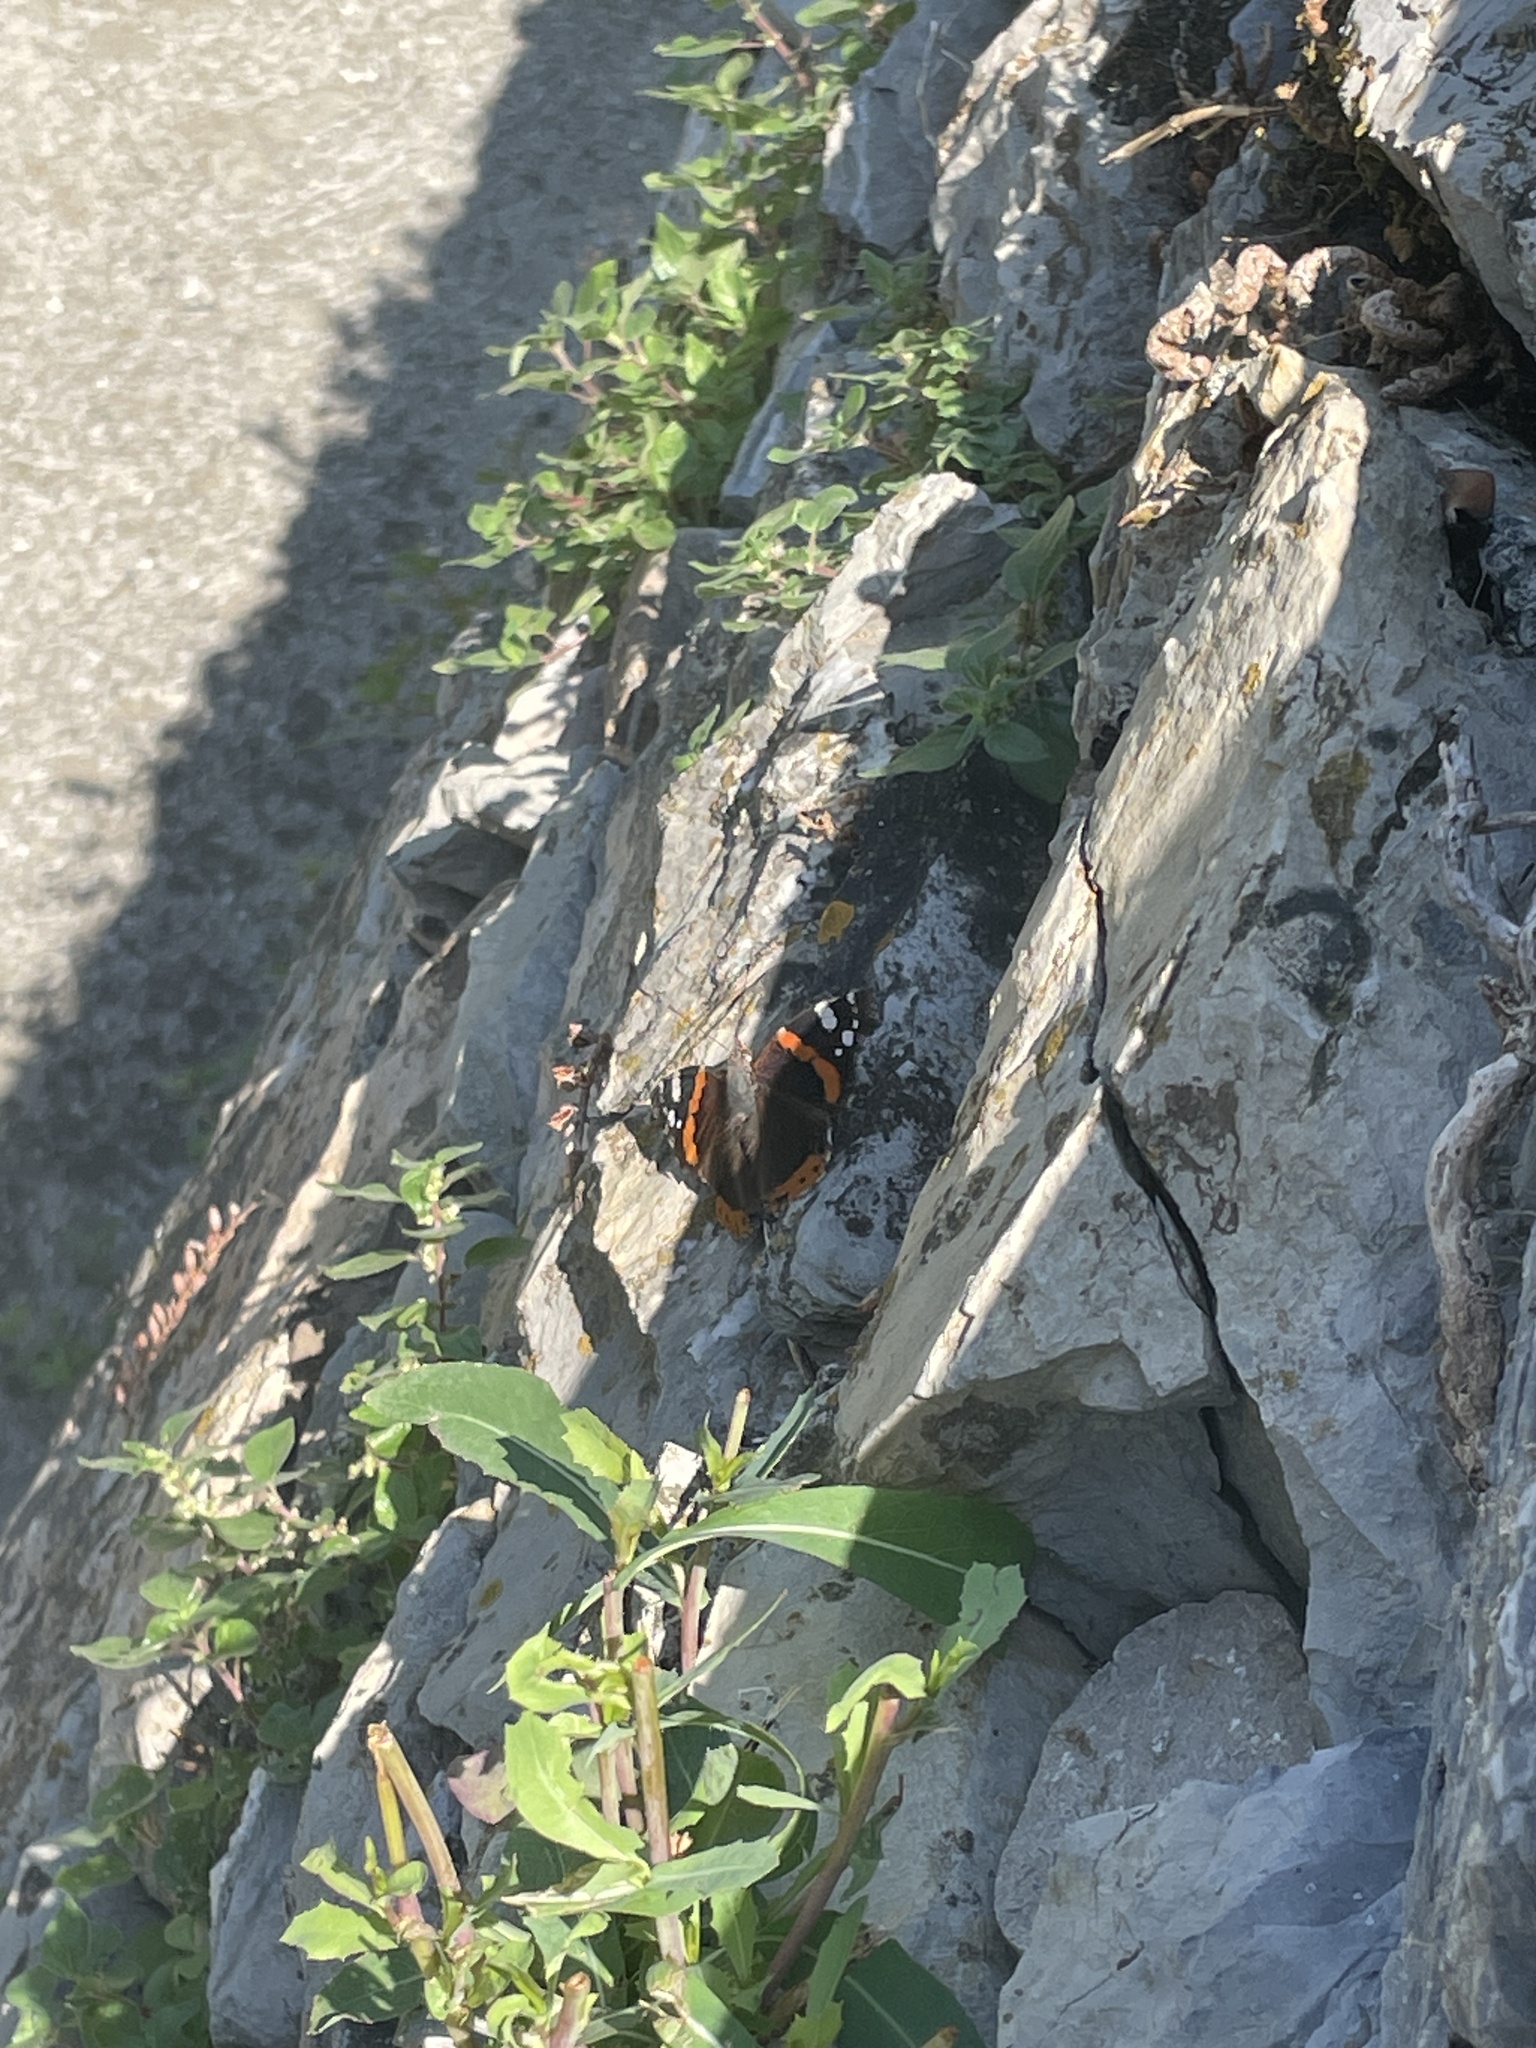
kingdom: Animalia
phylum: Arthropoda
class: Insecta
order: Lepidoptera
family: Nymphalidae
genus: Vanessa
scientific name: Vanessa atalanta
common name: Red admiral
